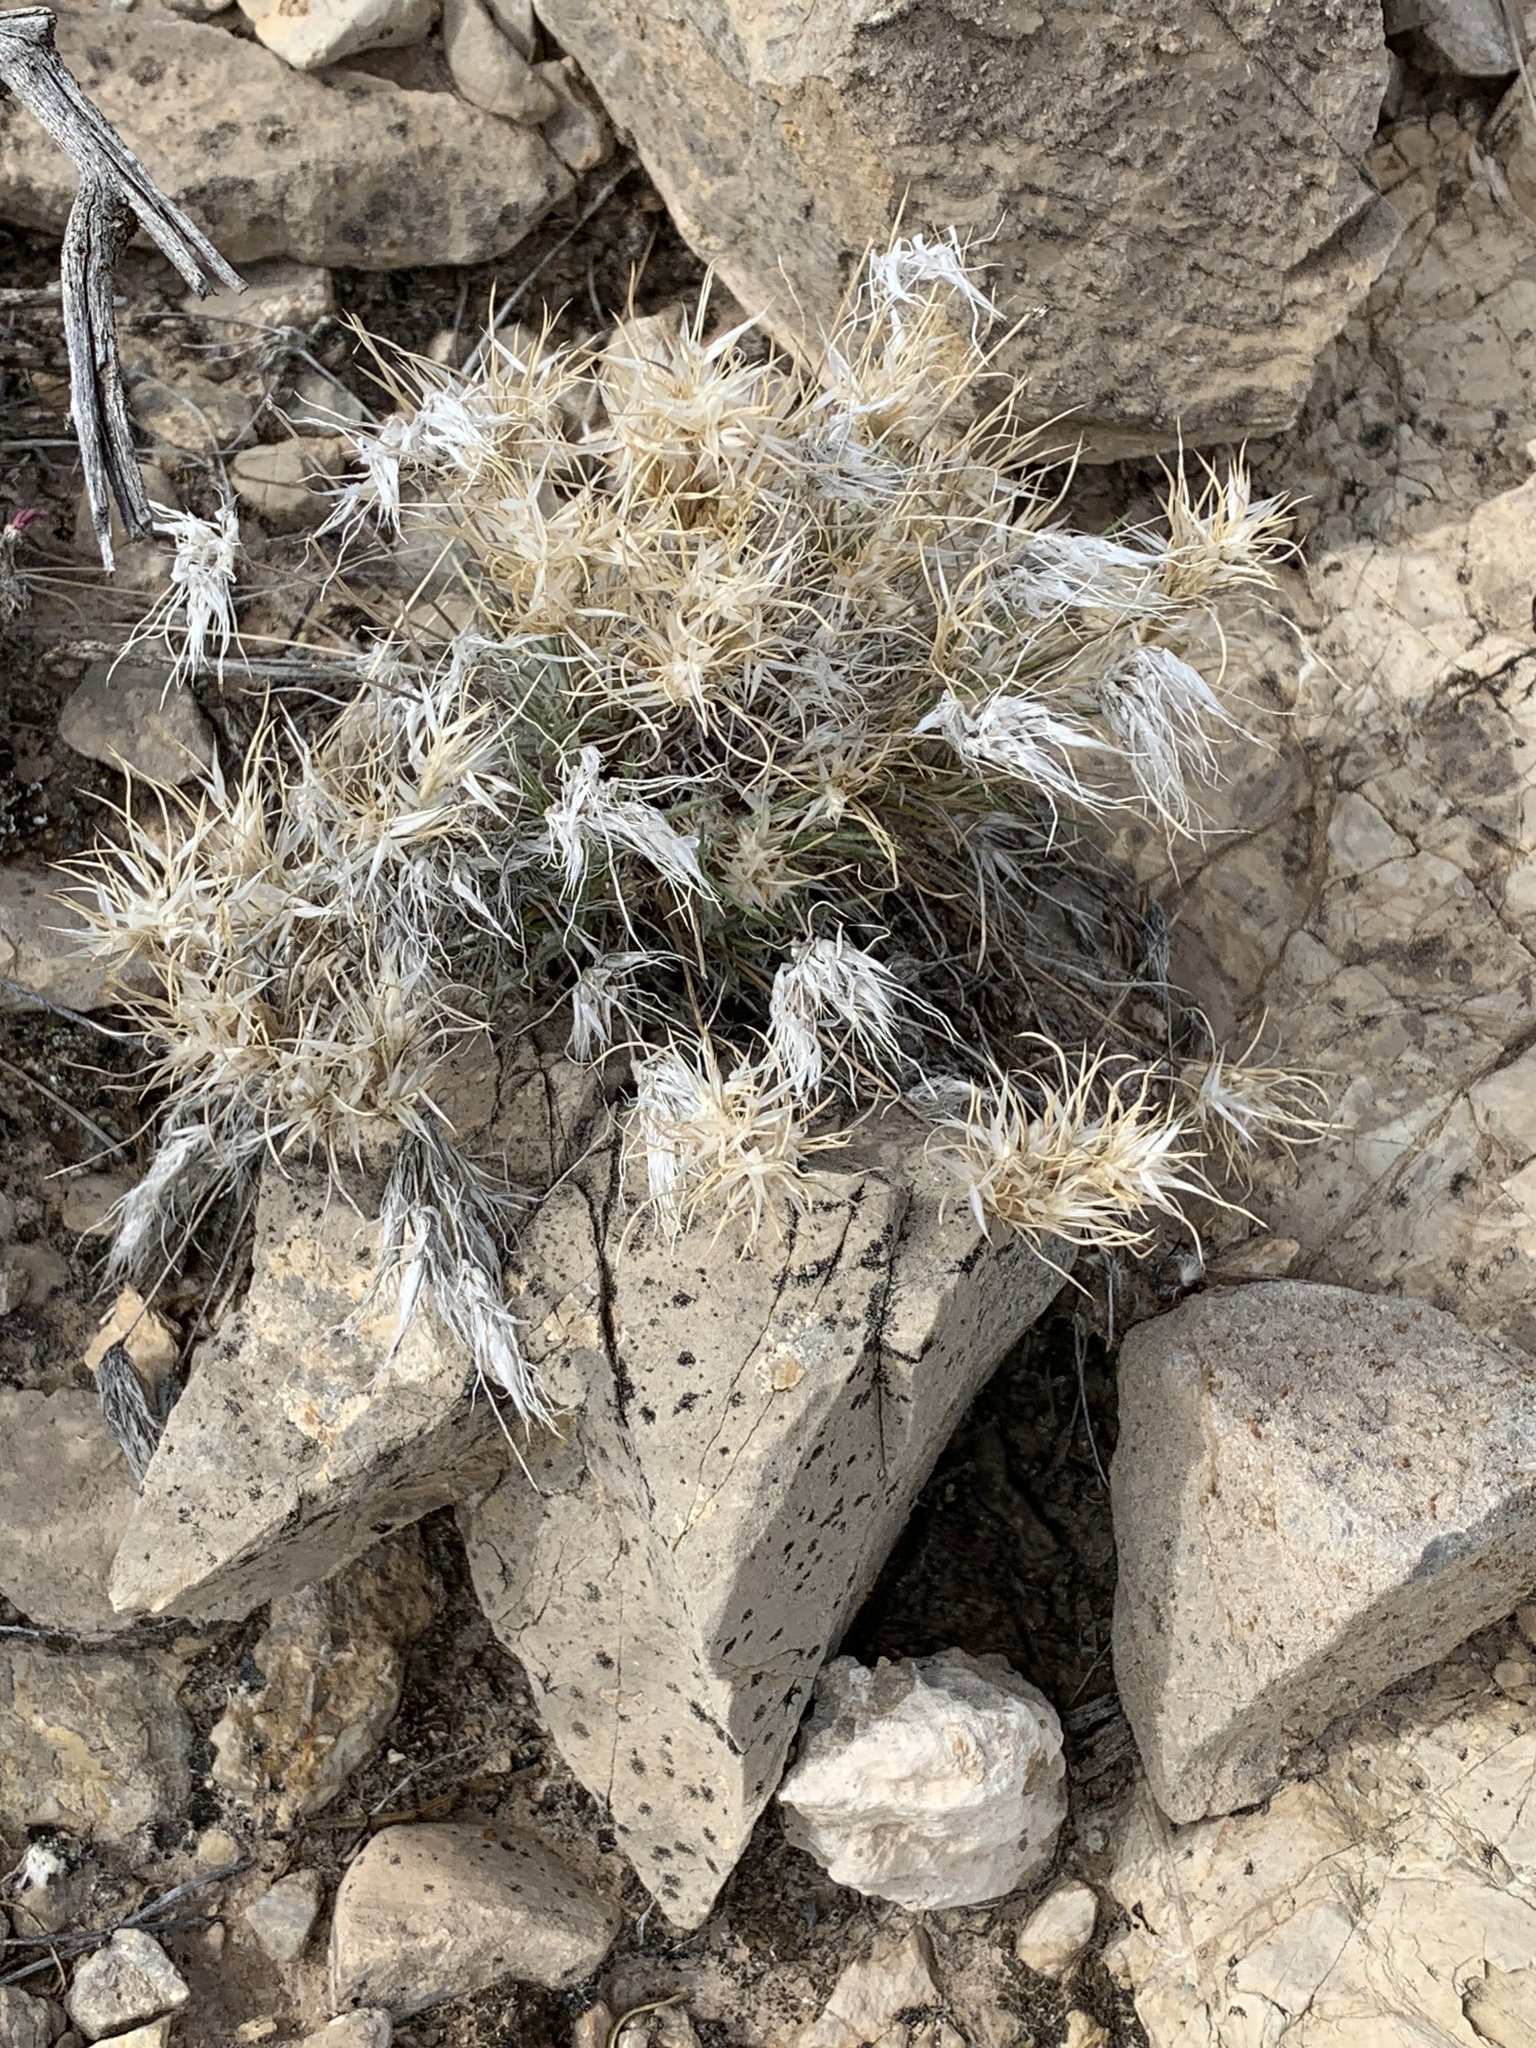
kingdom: Plantae
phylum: Tracheophyta
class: Liliopsida
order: Poales
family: Poaceae
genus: Dasyochloa
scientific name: Dasyochloa pulchella
